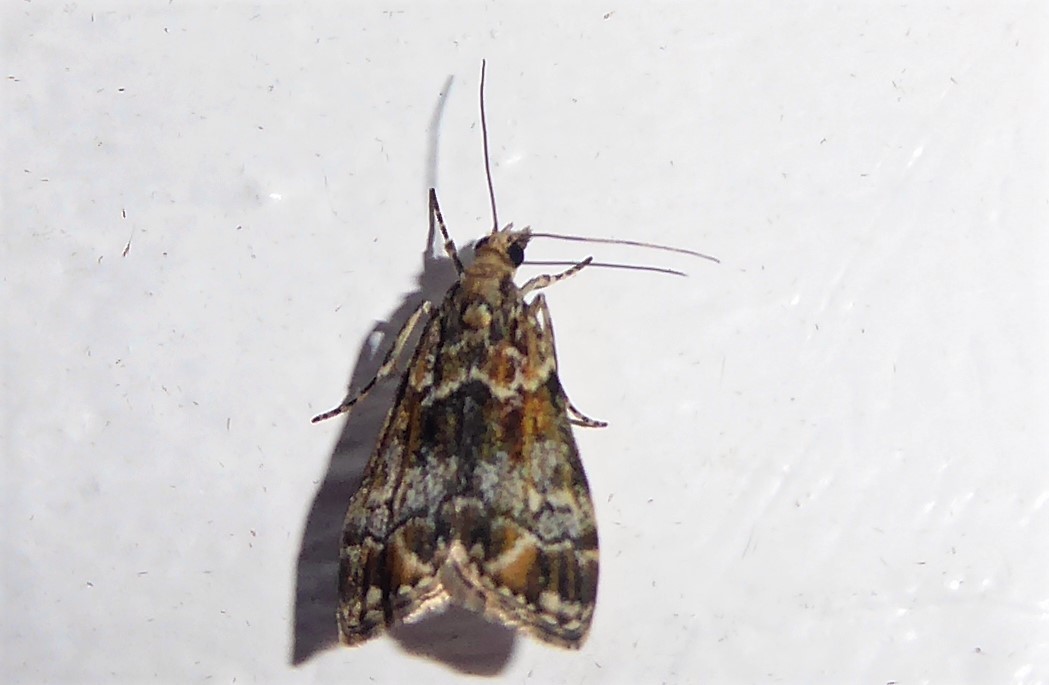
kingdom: Animalia
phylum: Arthropoda
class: Insecta
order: Lepidoptera
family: Crambidae
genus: Eudonia
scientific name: Eudonia minualis
